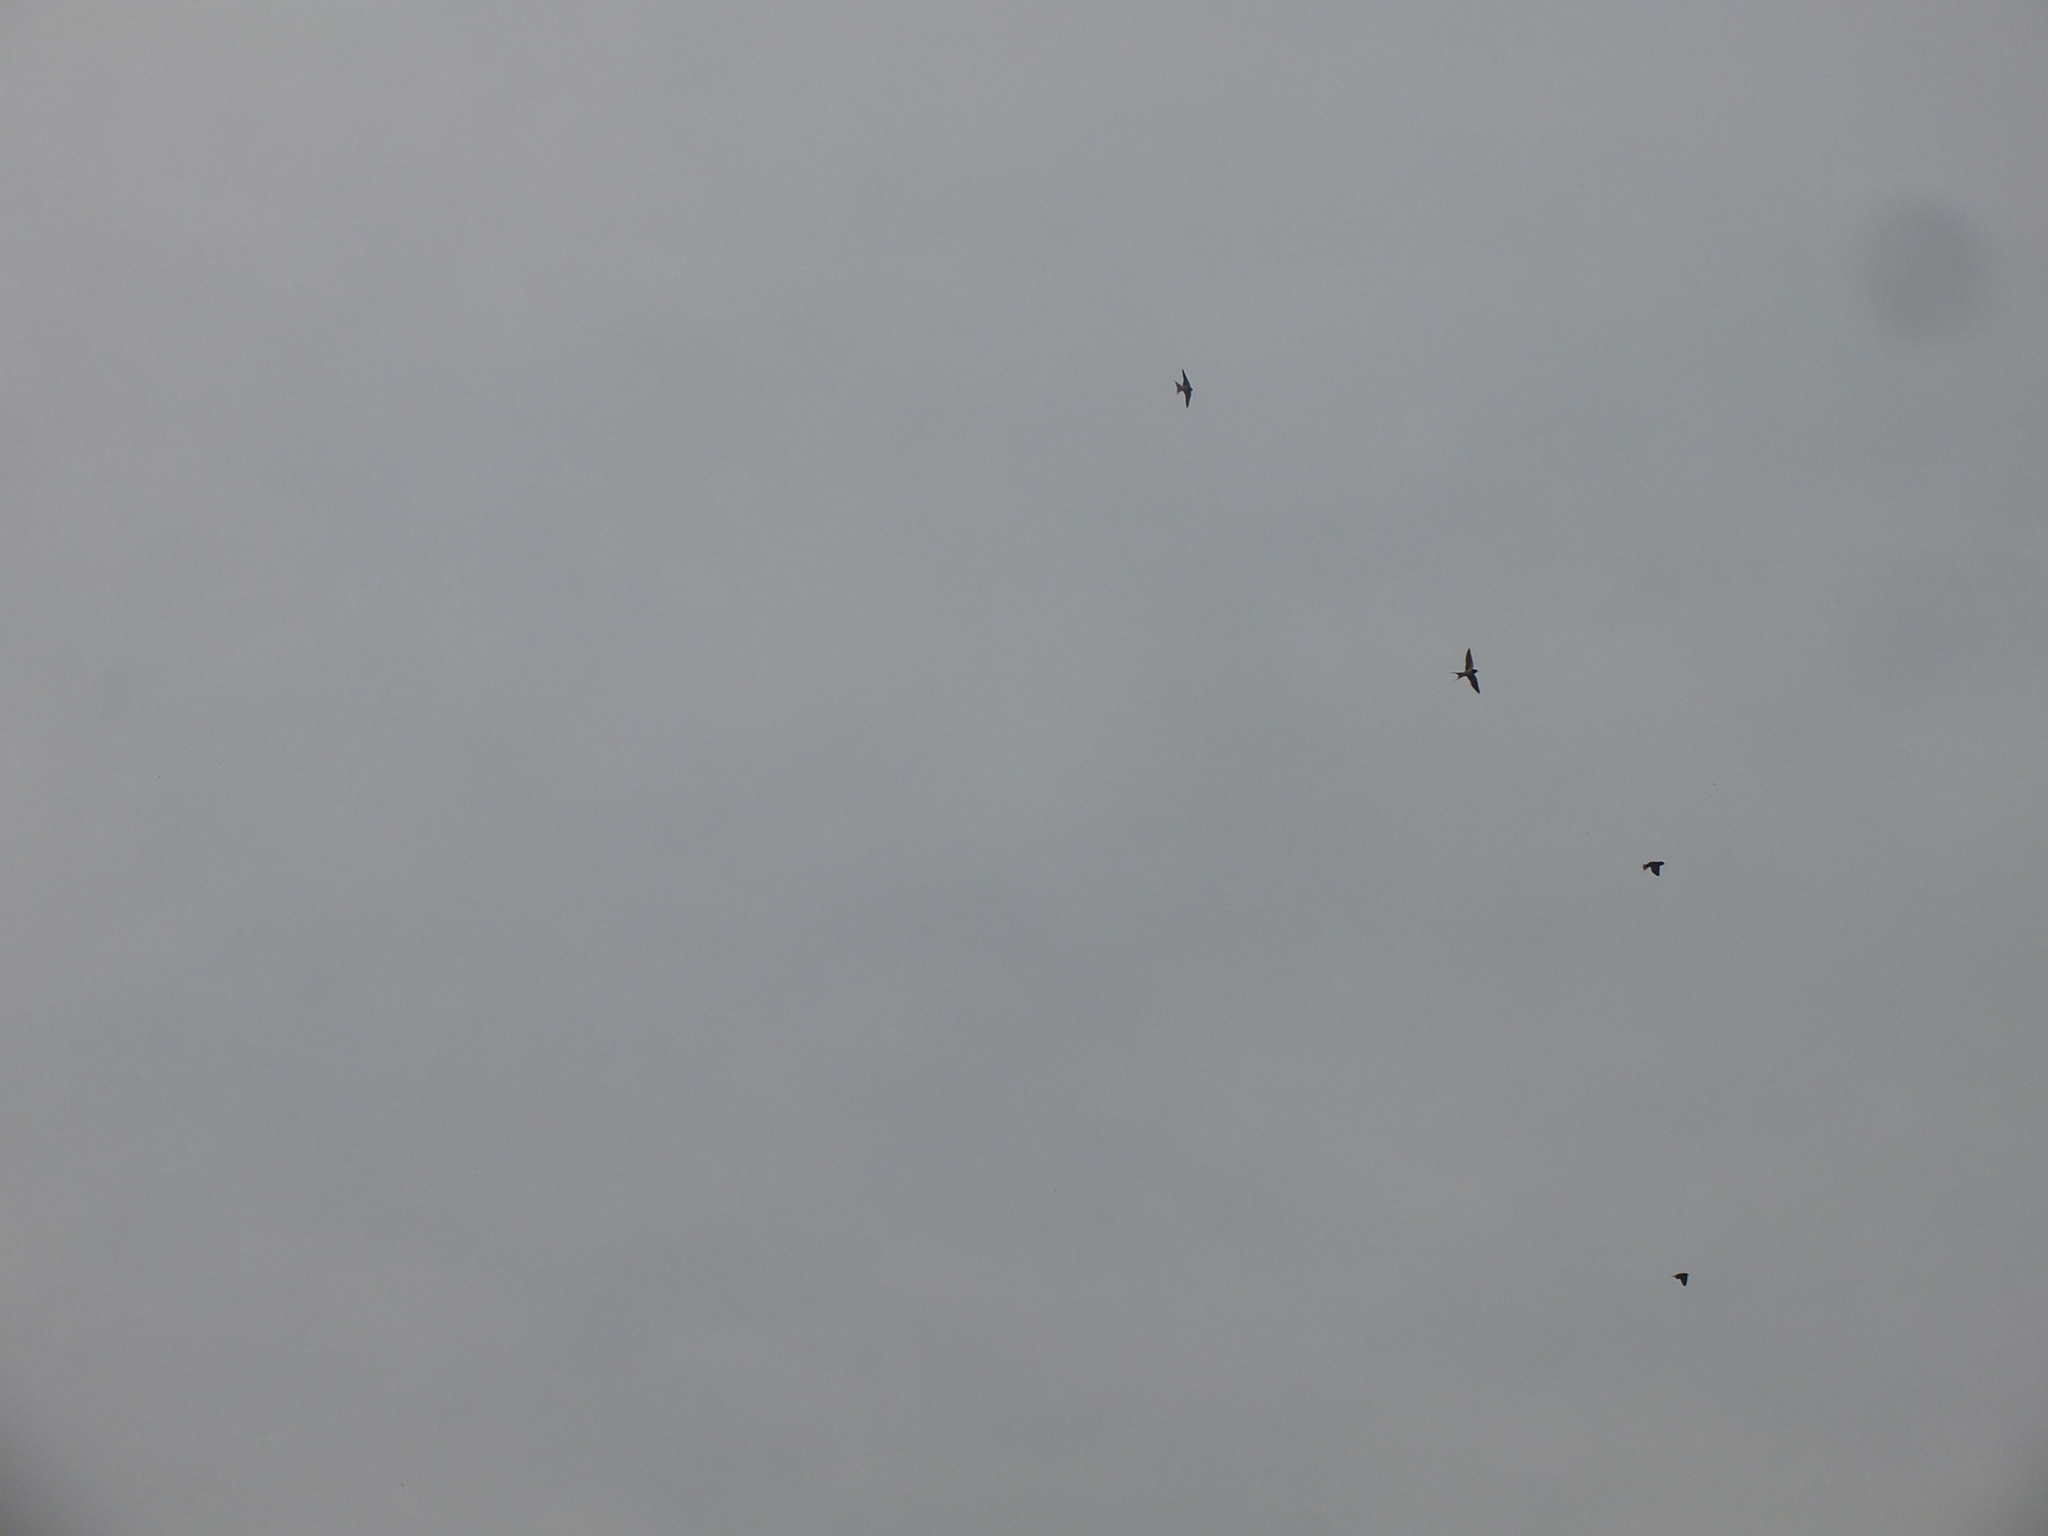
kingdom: Animalia
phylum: Chordata
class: Aves
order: Passeriformes
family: Hirundinidae
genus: Hirundo
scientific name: Hirundo rustica
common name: Barn swallow
